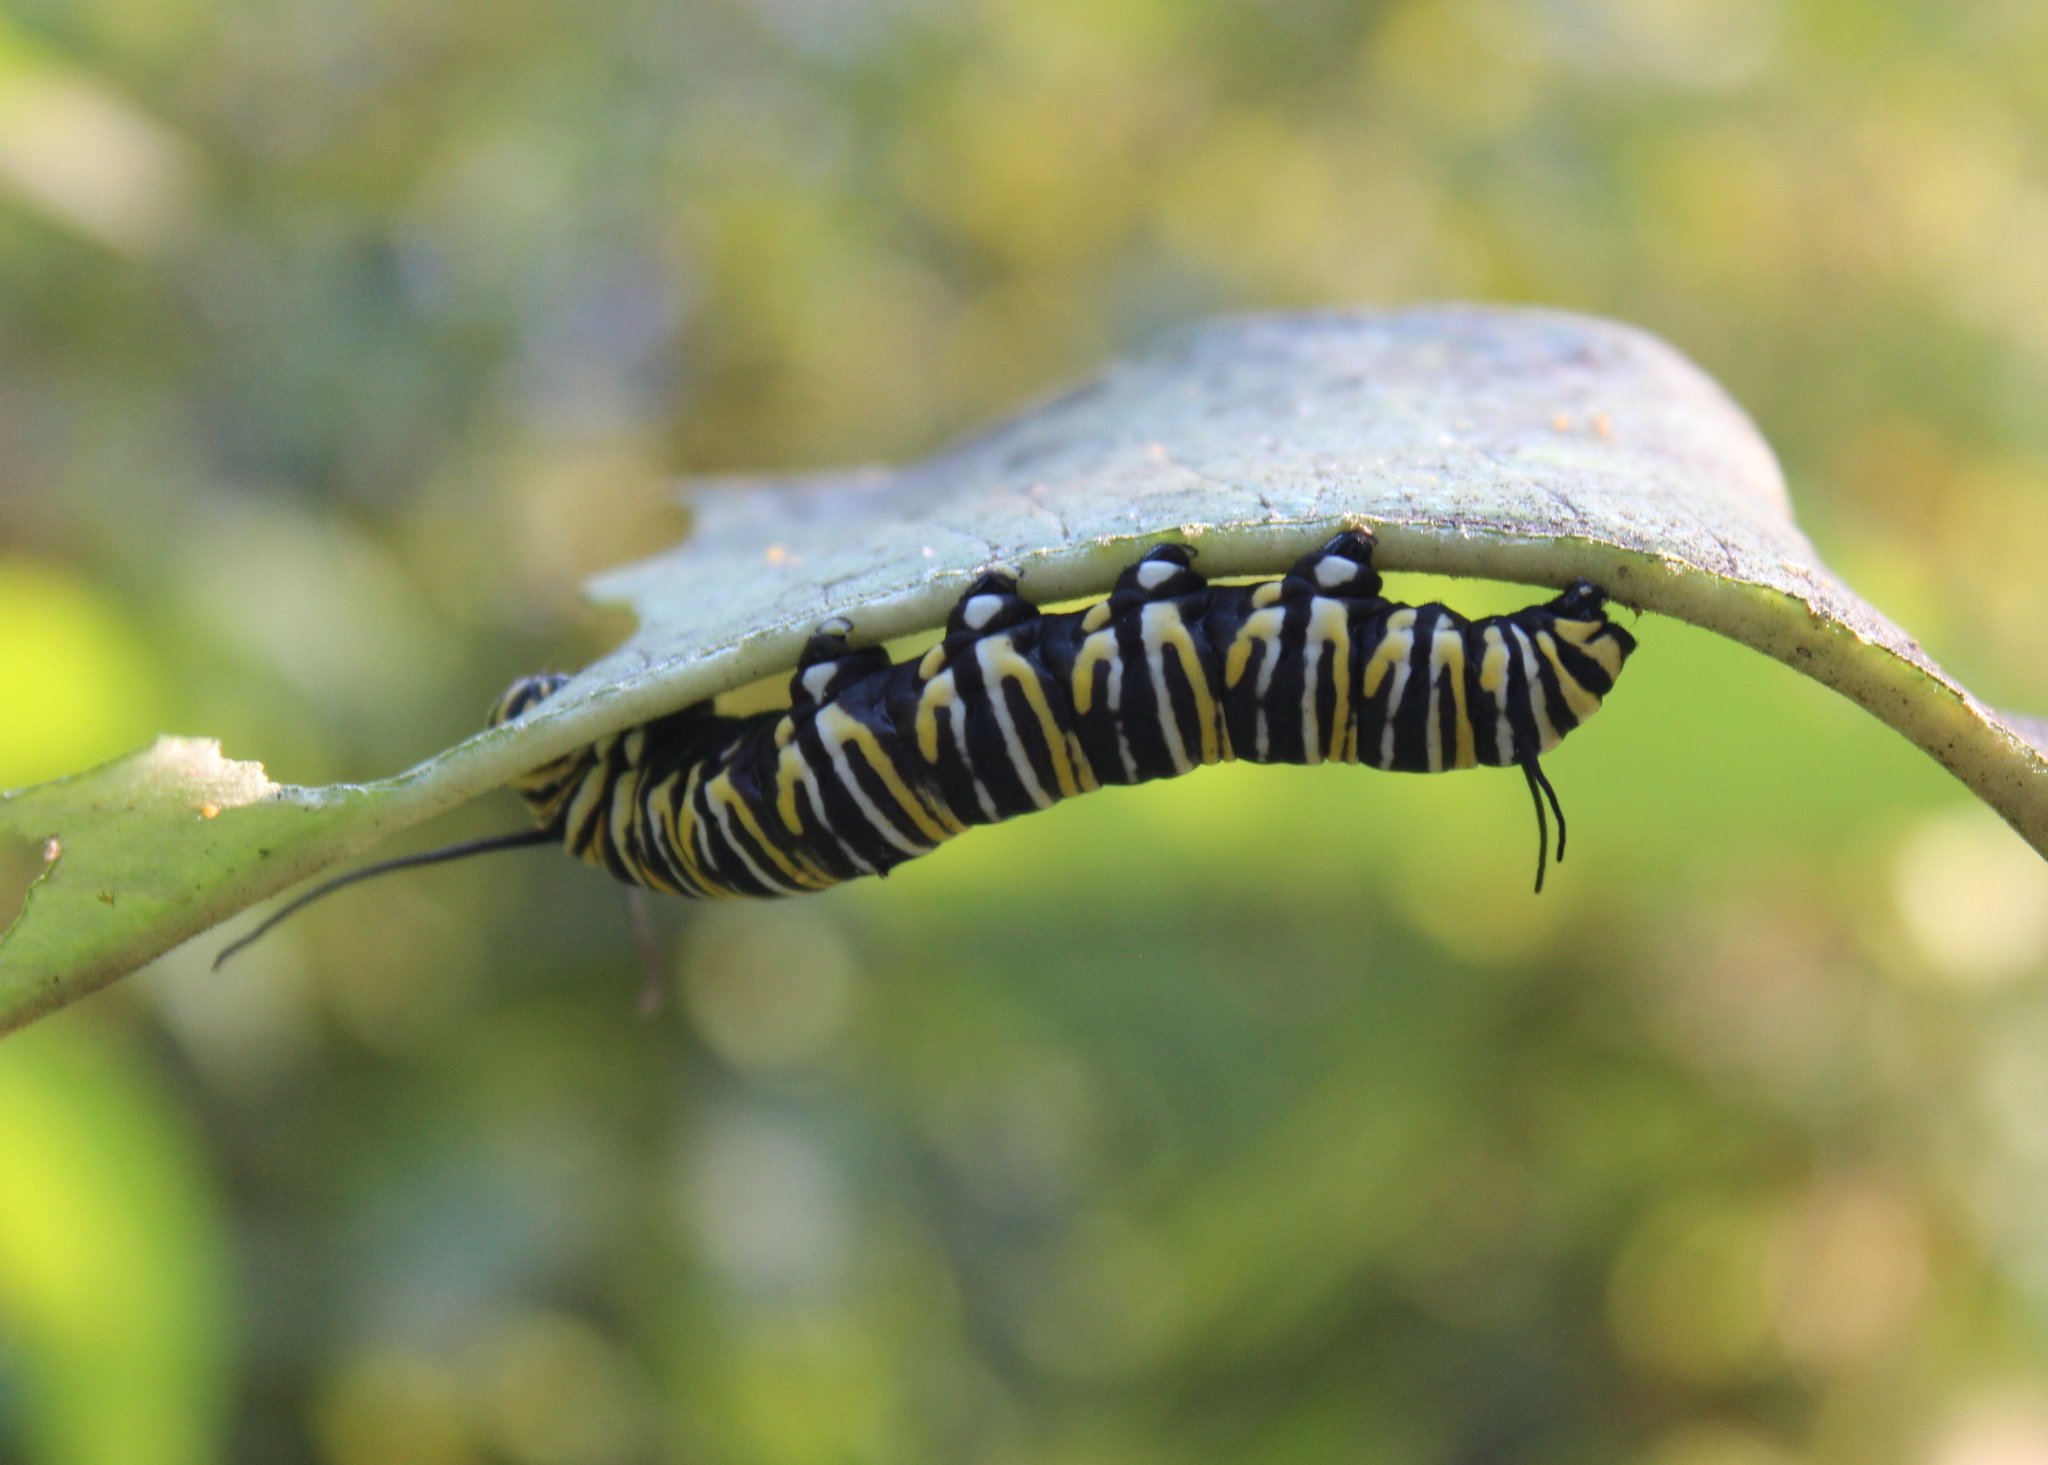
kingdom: Animalia
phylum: Arthropoda
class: Insecta
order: Lepidoptera
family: Nymphalidae
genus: Danaus
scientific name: Danaus plexippus
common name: Monarch
